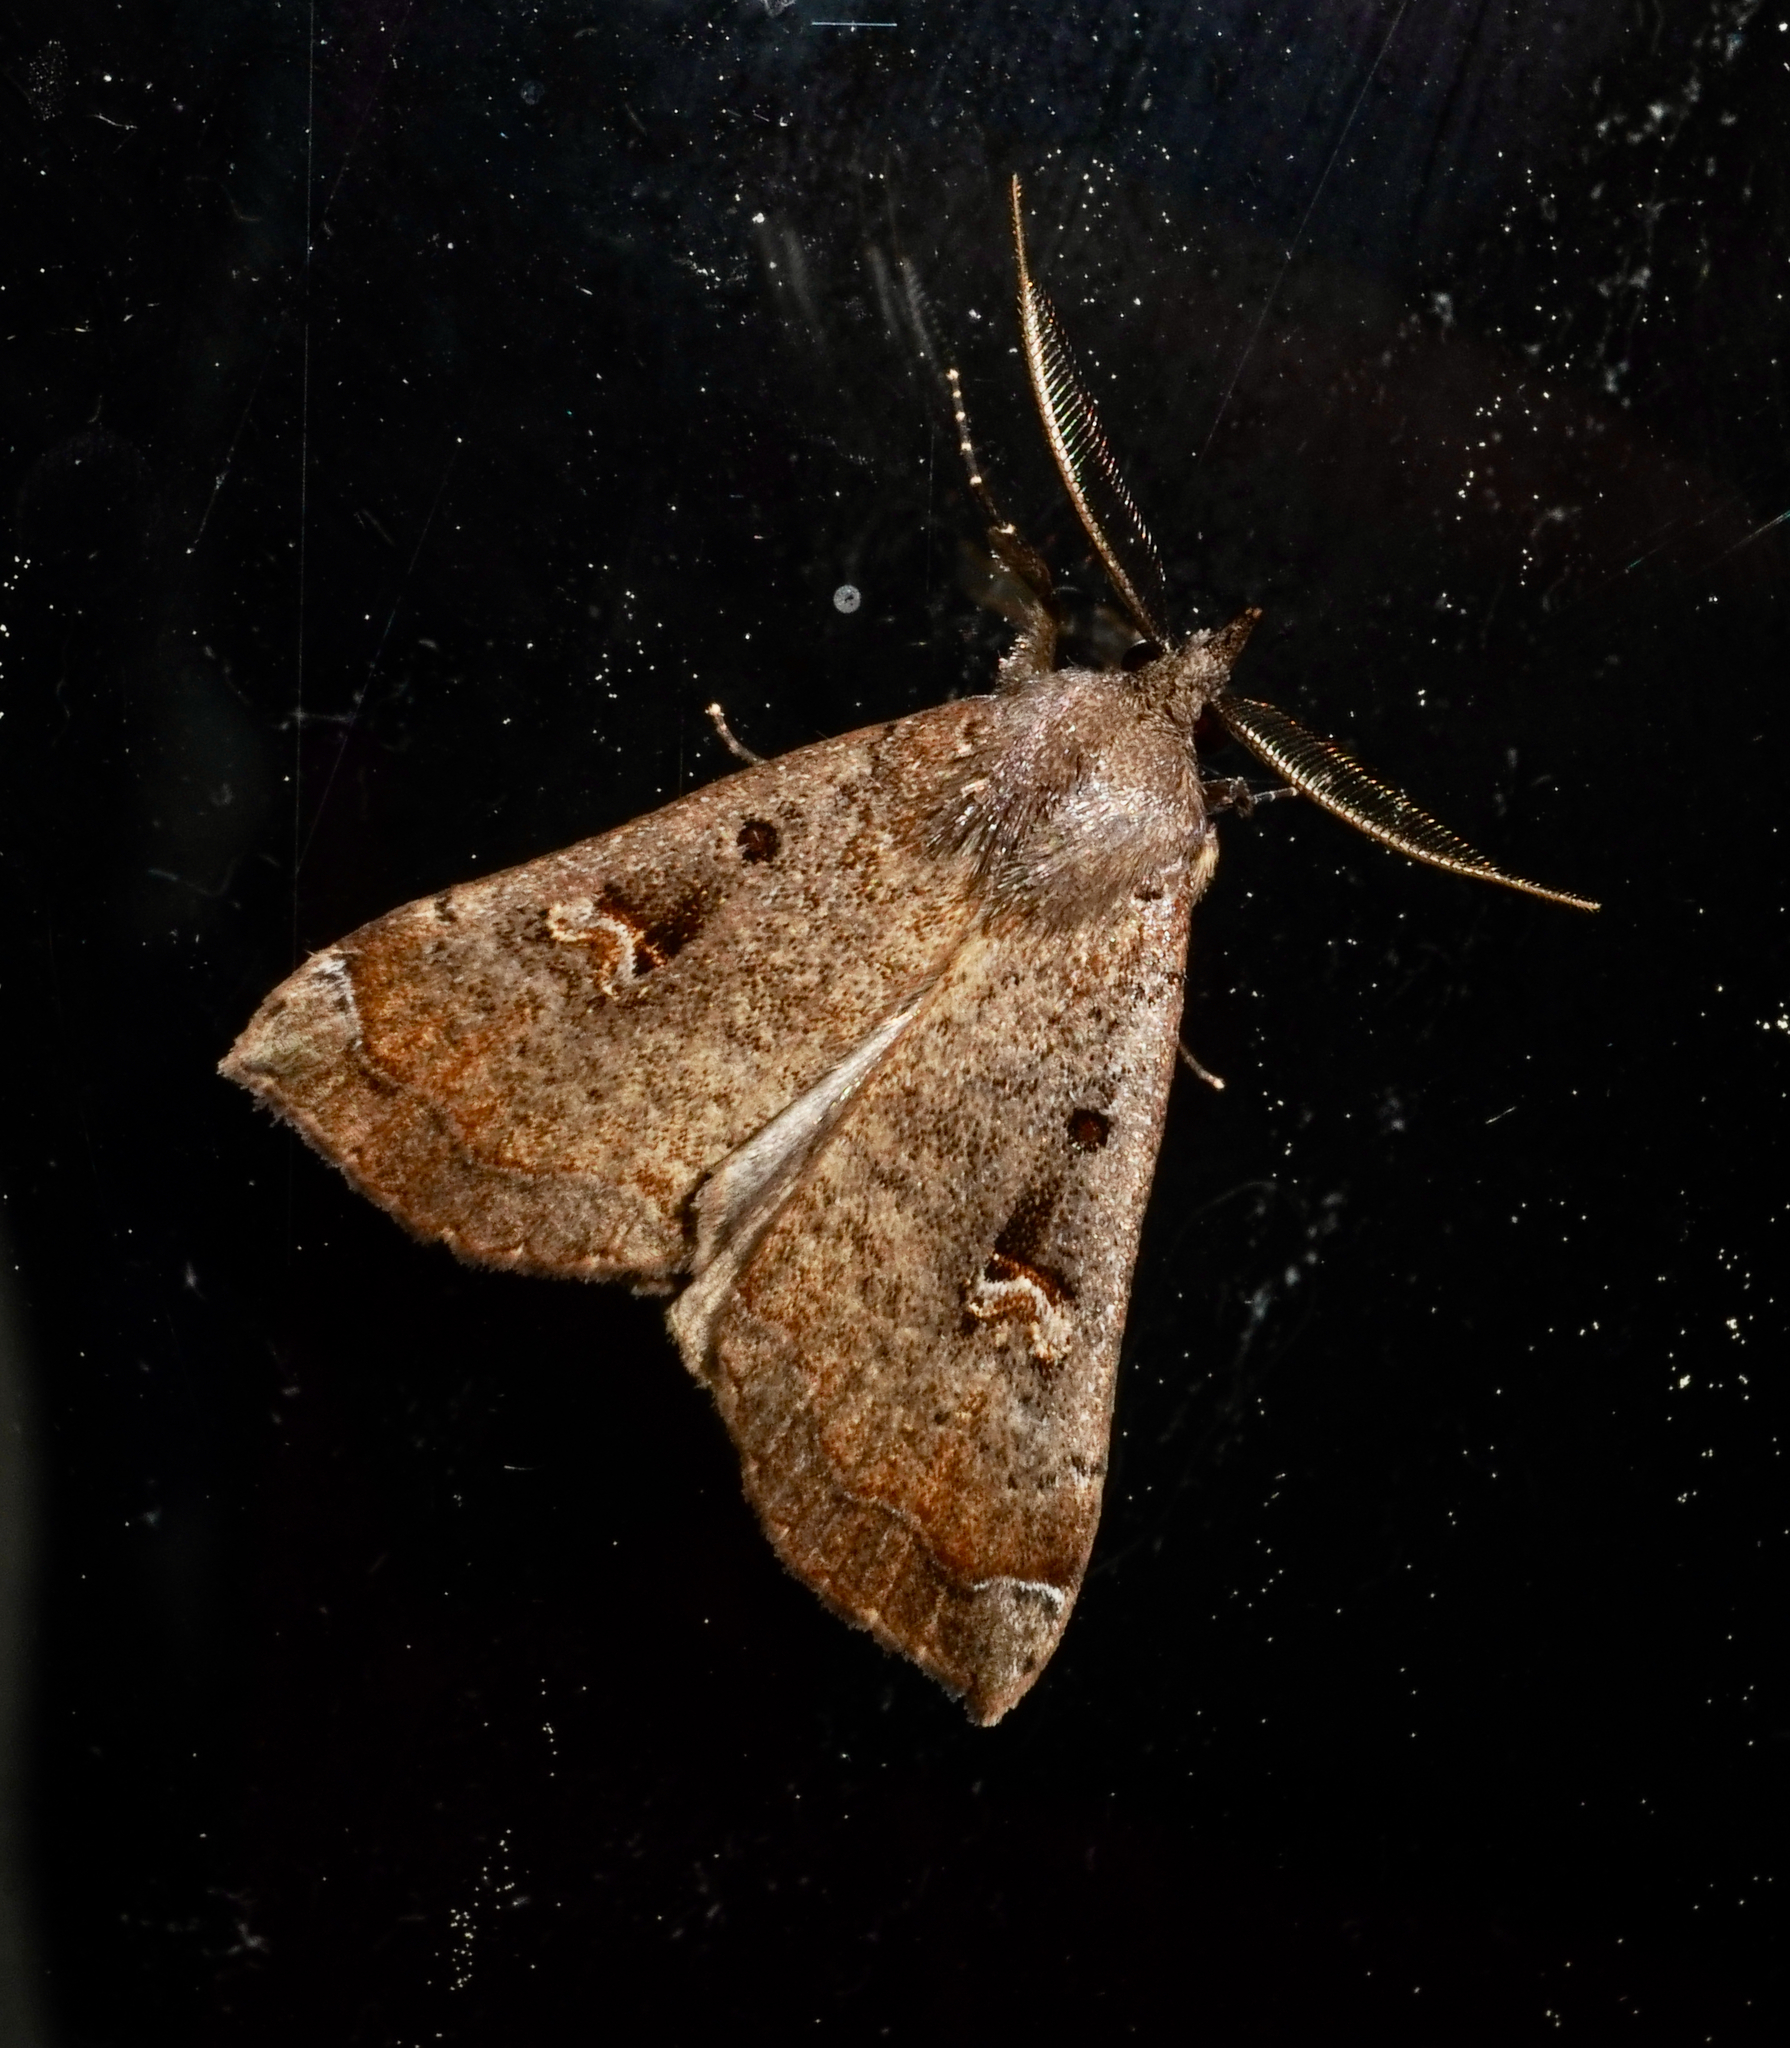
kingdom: Animalia
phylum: Arthropoda
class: Insecta
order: Lepidoptera
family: Erebidae
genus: Rhapsa
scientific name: Rhapsa scotosialis
